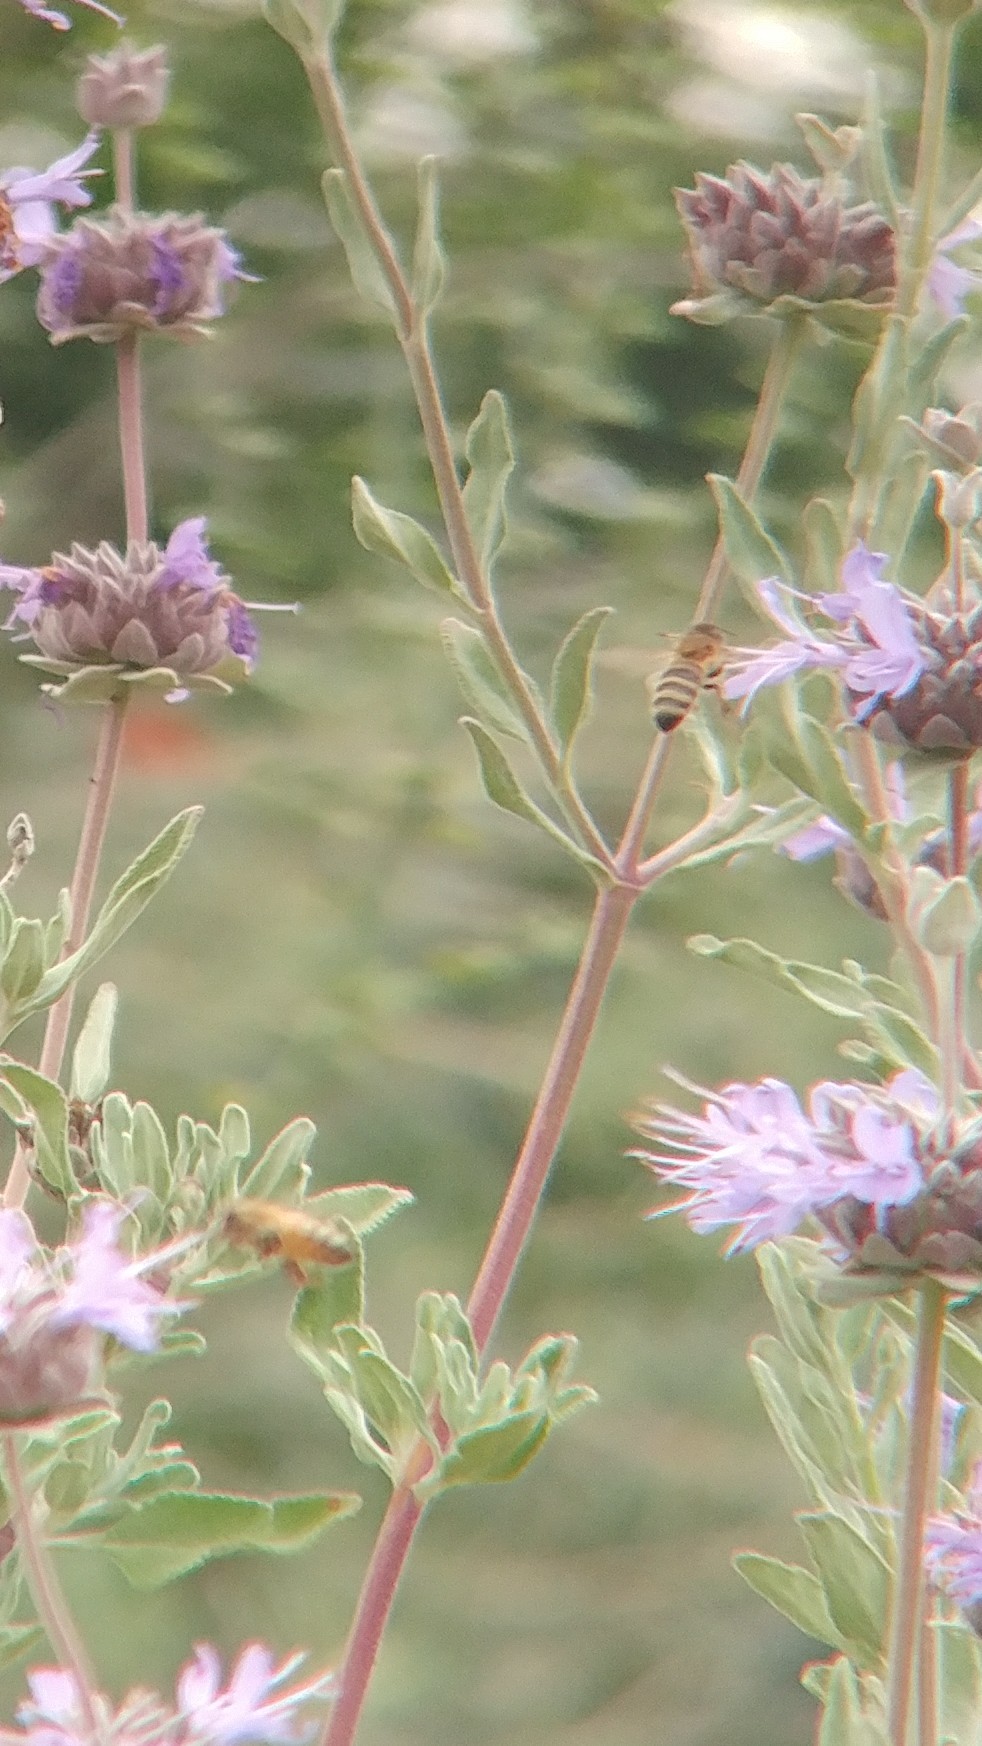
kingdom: Animalia
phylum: Arthropoda
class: Insecta
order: Hymenoptera
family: Apidae
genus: Apis
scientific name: Apis mellifera
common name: Honey bee
